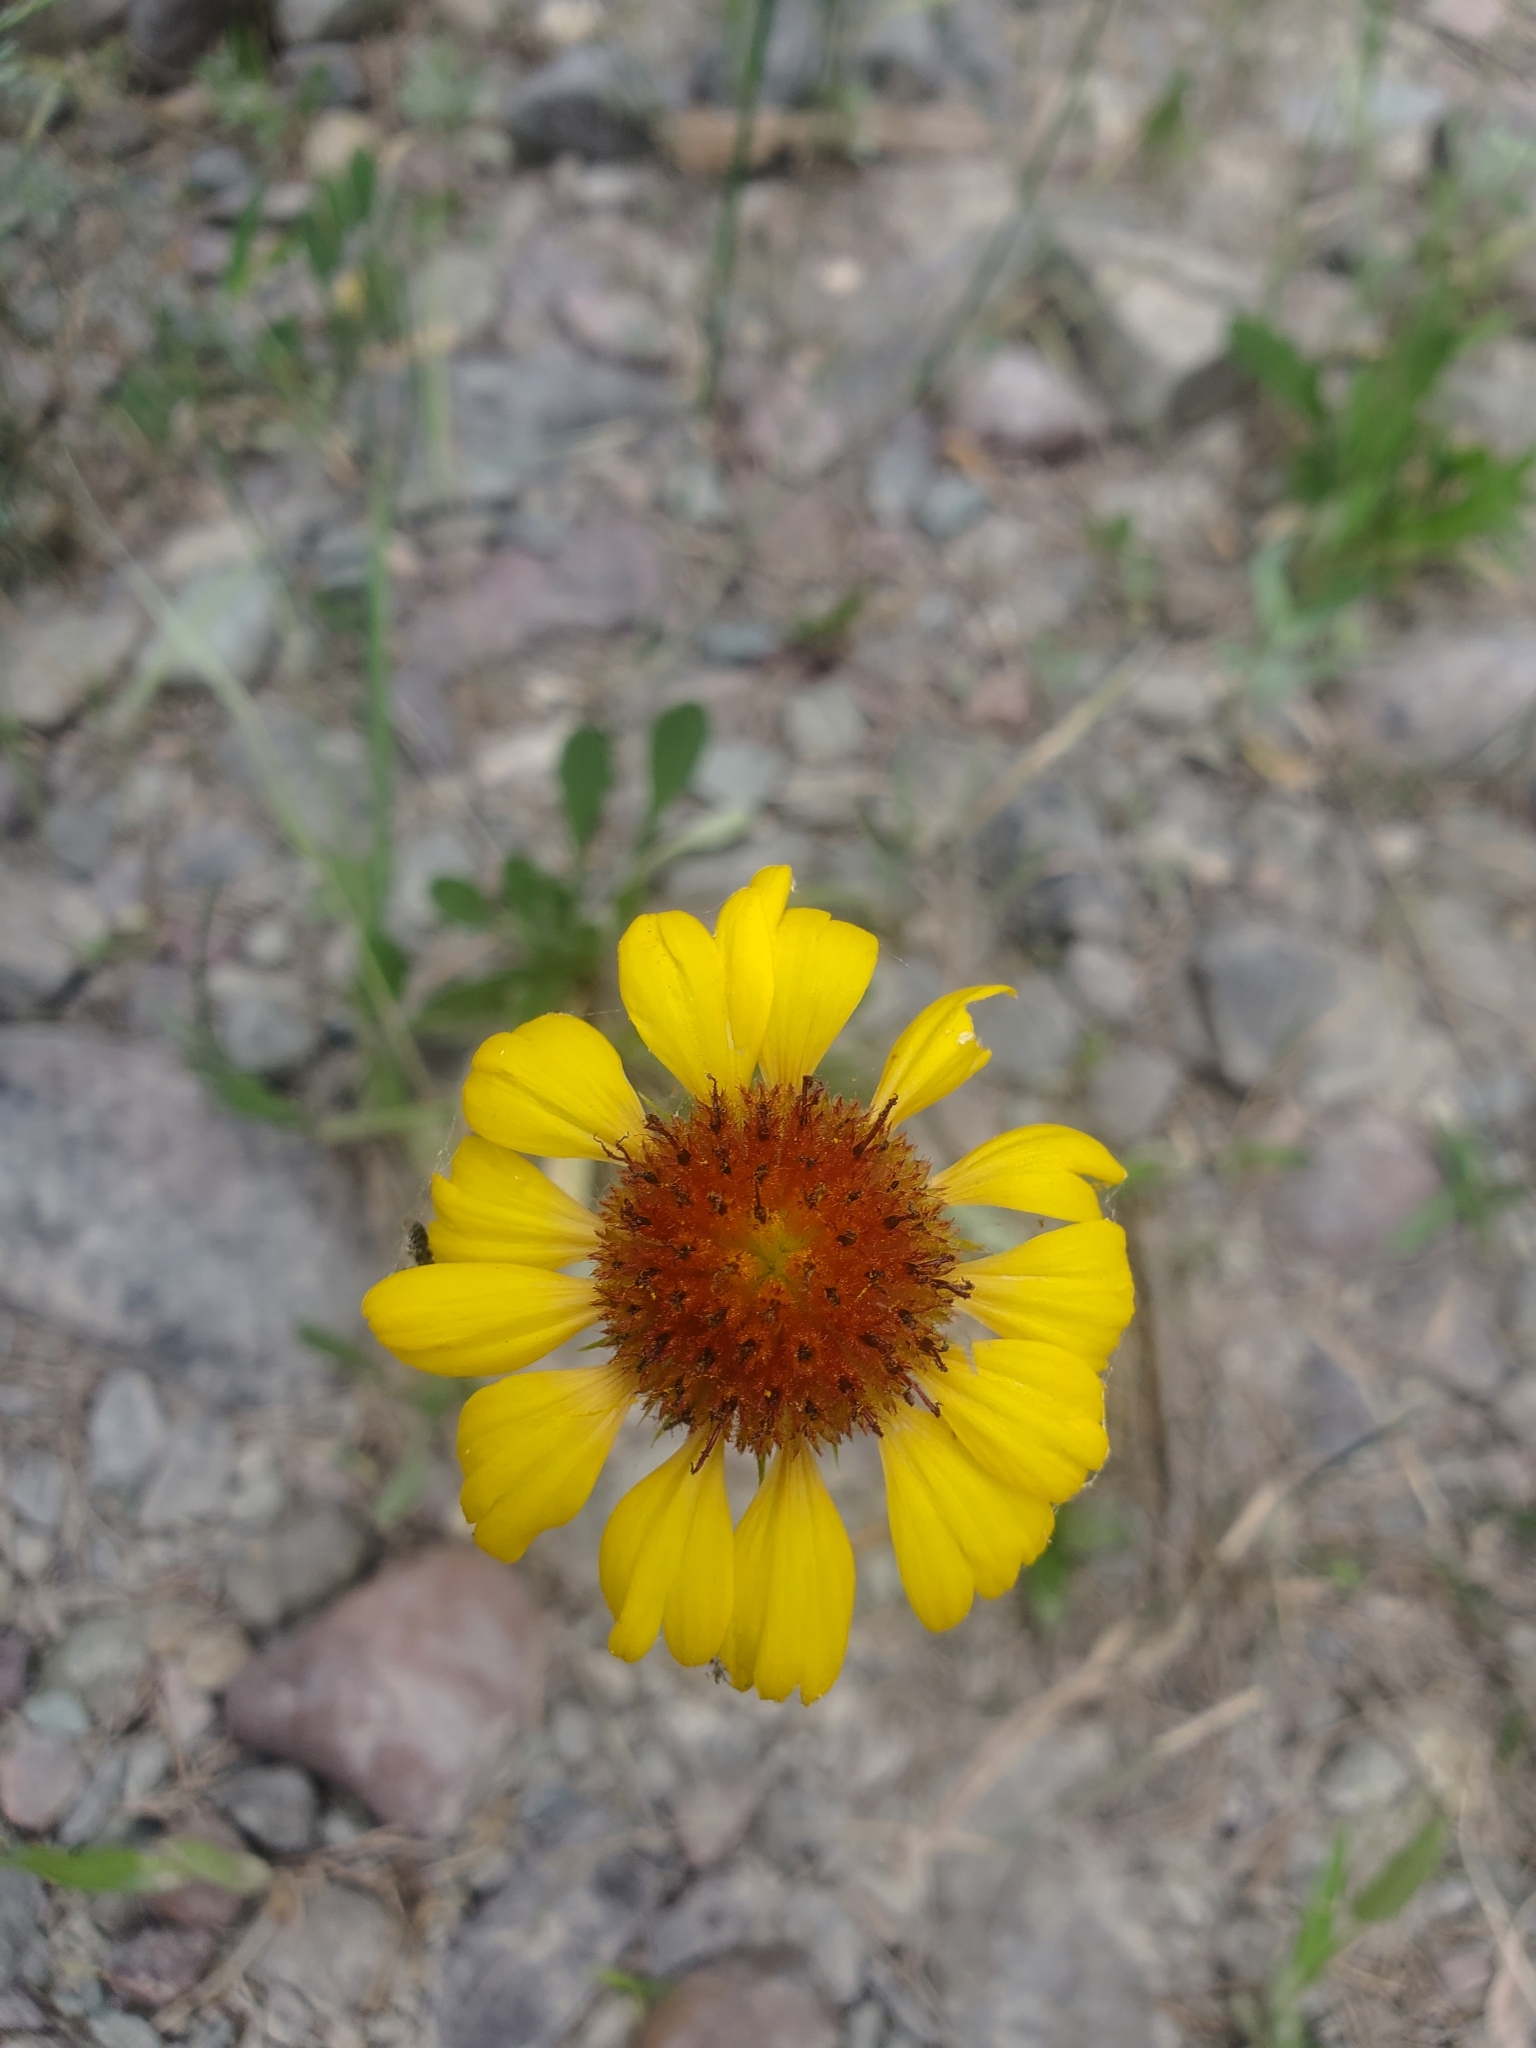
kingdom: Plantae
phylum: Tracheophyta
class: Magnoliopsida
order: Asterales
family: Asteraceae
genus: Gaillardia
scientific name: Gaillardia aristata
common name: Blanket-flower
